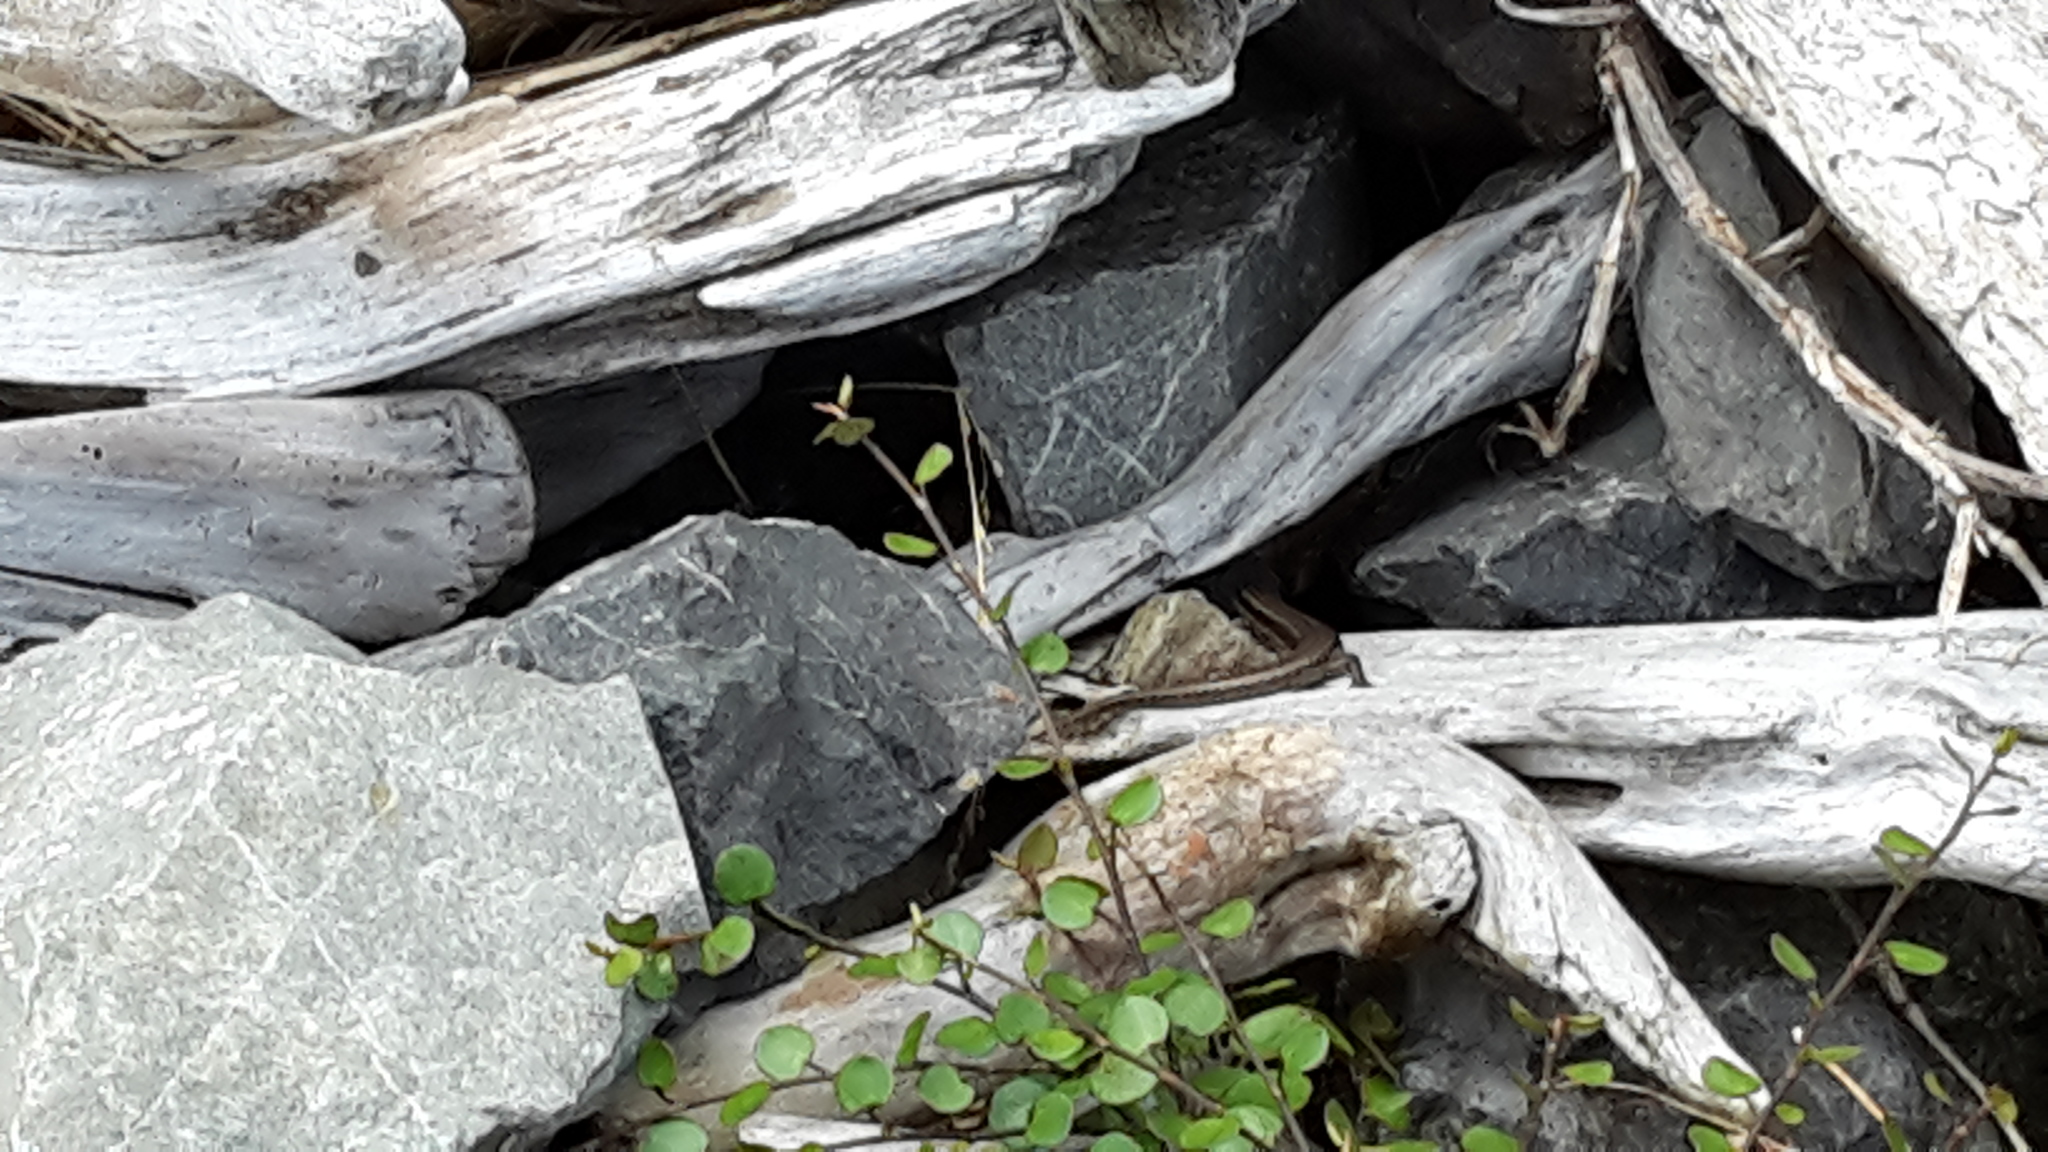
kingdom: Animalia
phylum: Chordata
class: Squamata
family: Scincidae
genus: Oligosoma
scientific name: Oligosoma polychroma
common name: Common new zealand skink
